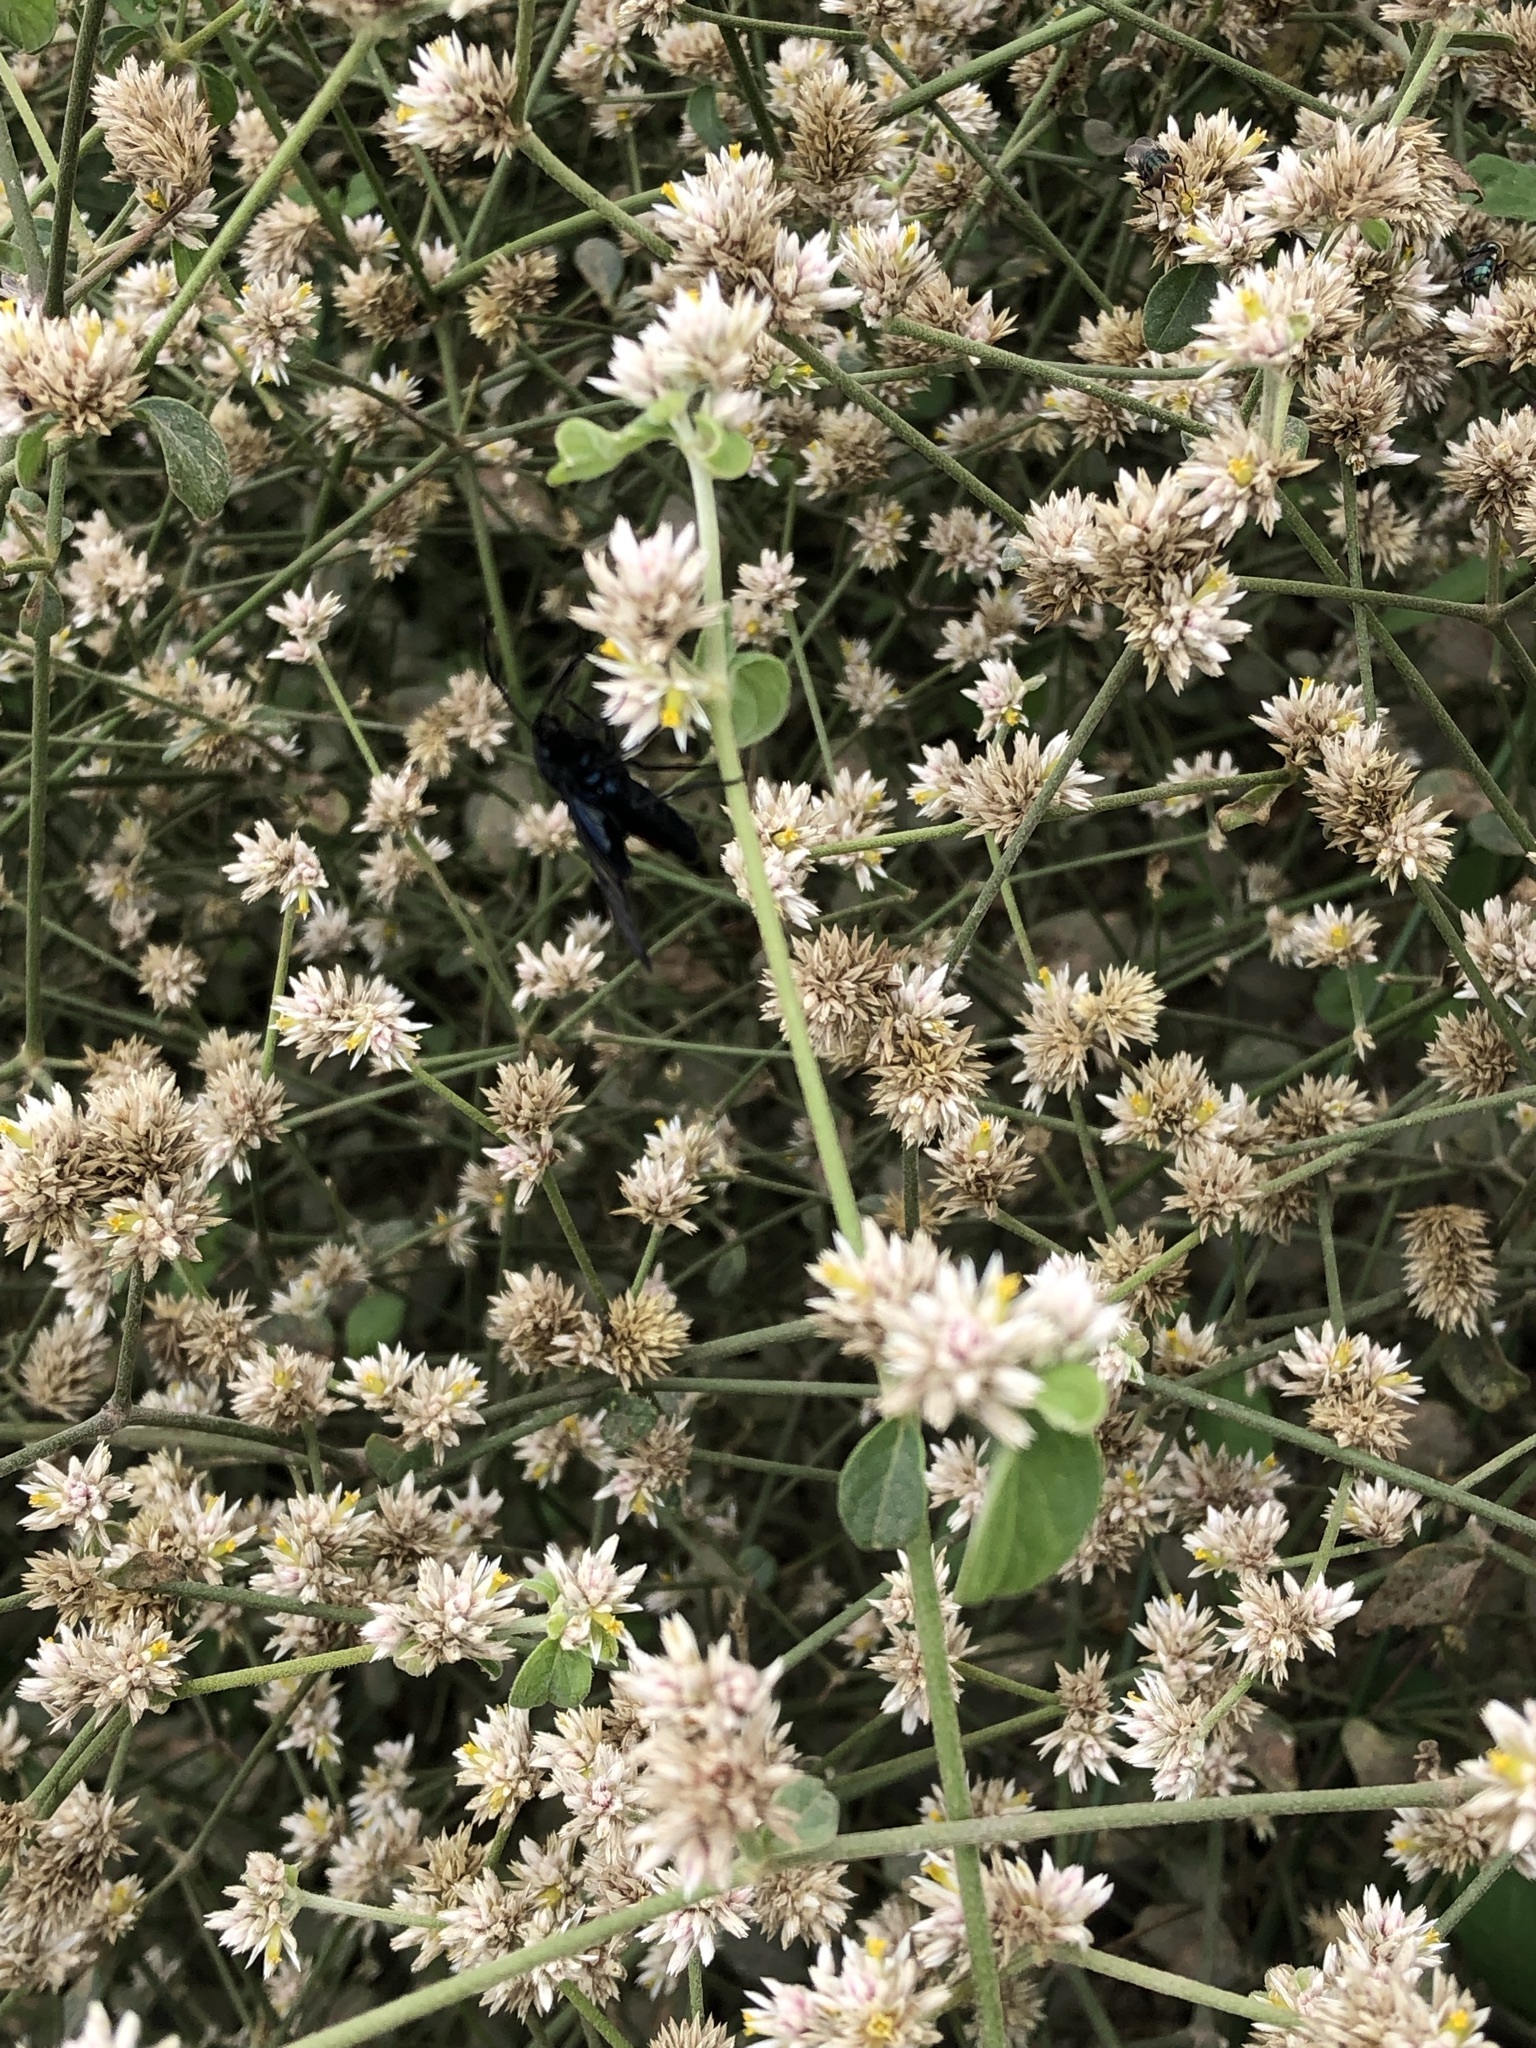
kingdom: Plantae
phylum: Tracheophyta
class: Magnoliopsida
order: Caryophyllales
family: Amaranthaceae
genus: Alternanthera
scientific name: Alternanthera halimifolia
